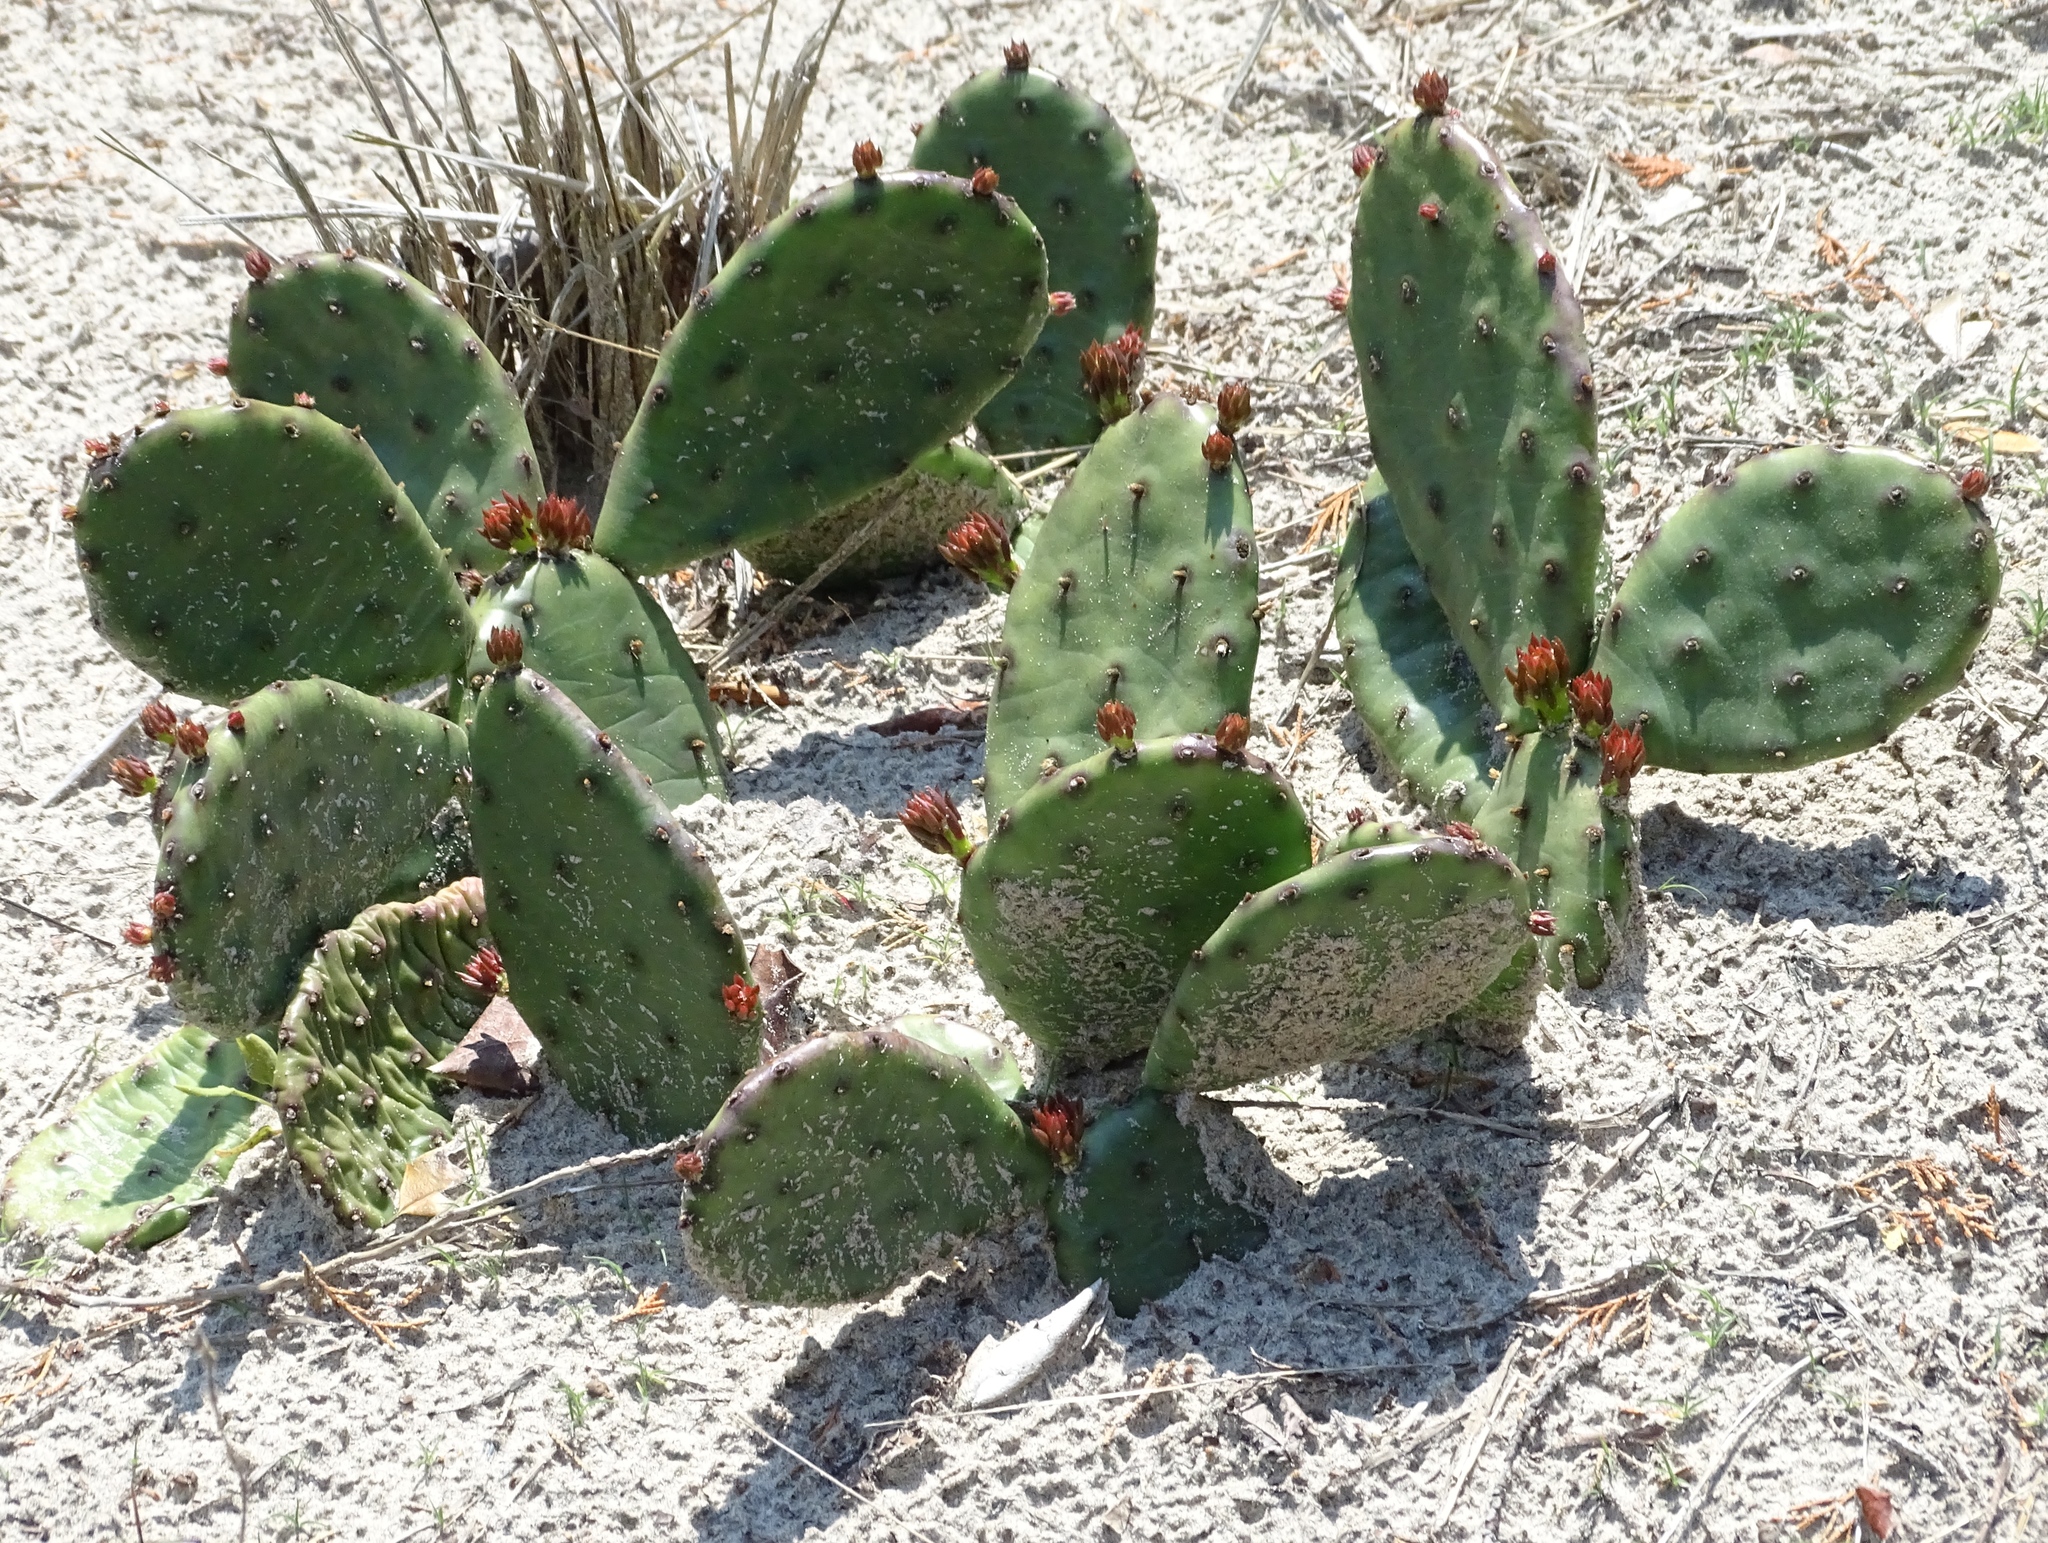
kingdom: Plantae
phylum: Tracheophyta
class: Magnoliopsida
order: Caryophyllales
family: Cactaceae
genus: Opuntia
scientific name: Opuntia humifusa
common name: Eastern prickly-pear
